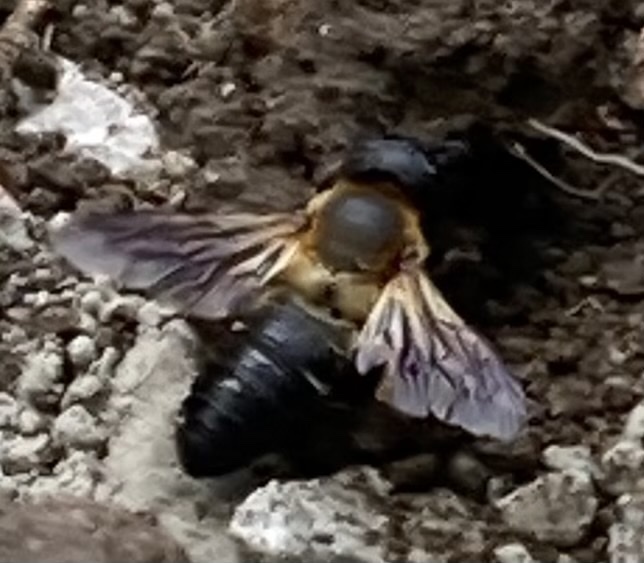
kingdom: Animalia
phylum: Arthropoda
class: Insecta
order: Hymenoptera
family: Megachilidae
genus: Megachile
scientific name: Megachile sculpturalis
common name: Sculptured resin bee
